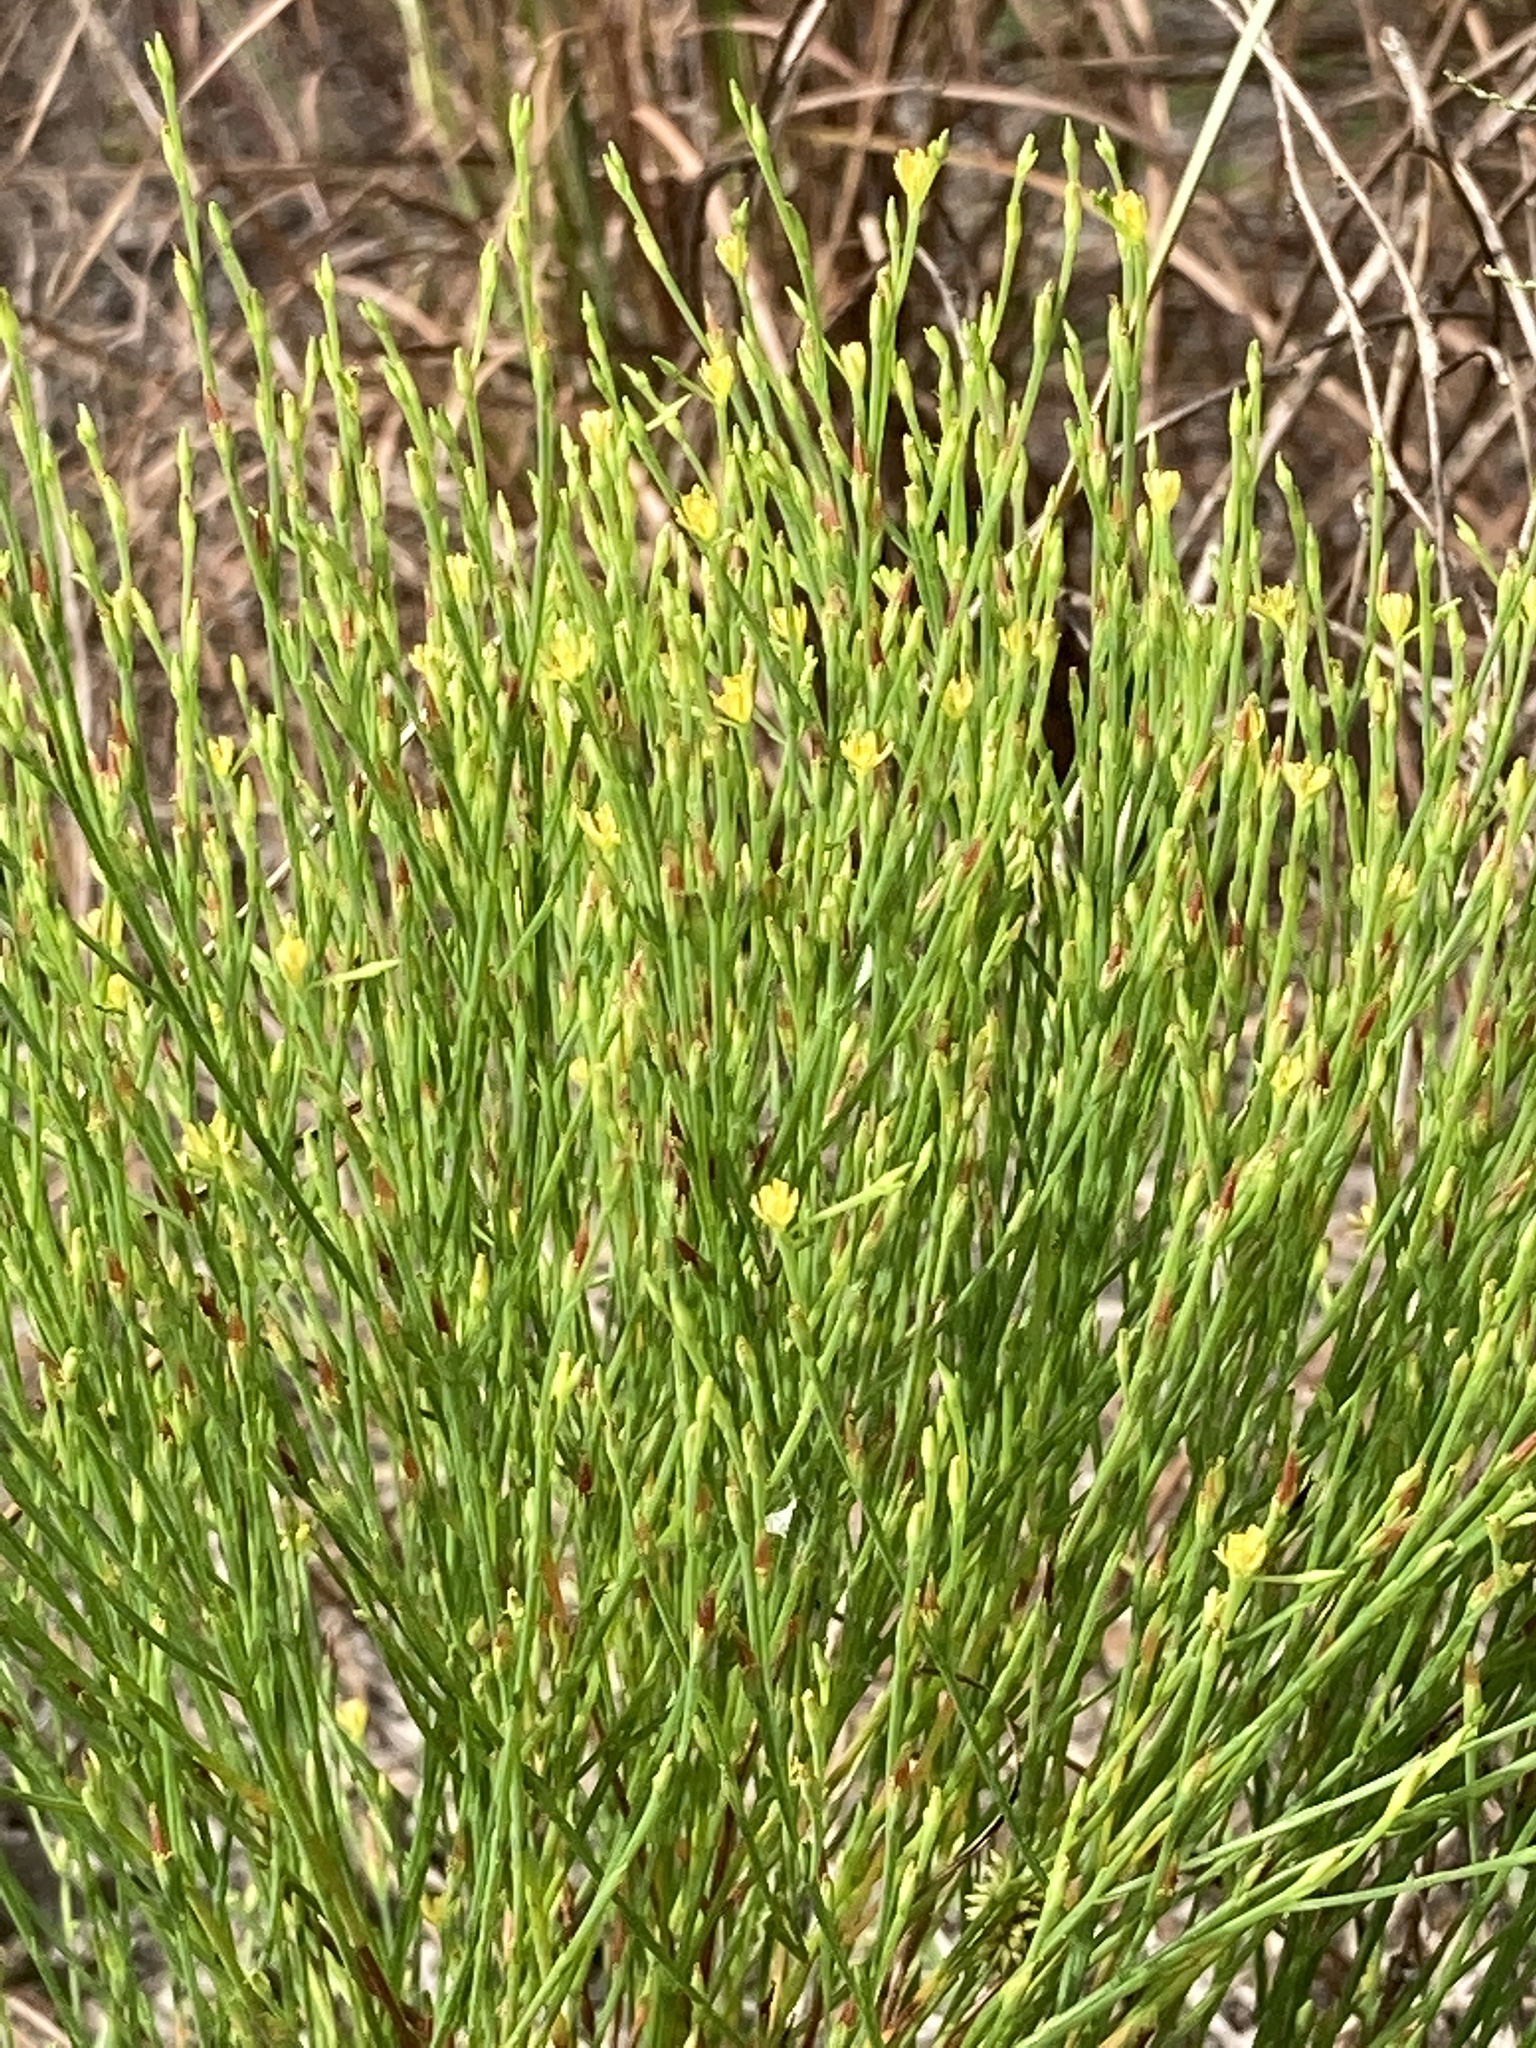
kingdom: Plantae
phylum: Tracheophyta
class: Magnoliopsida
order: Malpighiales
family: Hypericaceae
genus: Hypericum
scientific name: Hypericum gentianoides
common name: Gentian-leaved st. john's-wort
